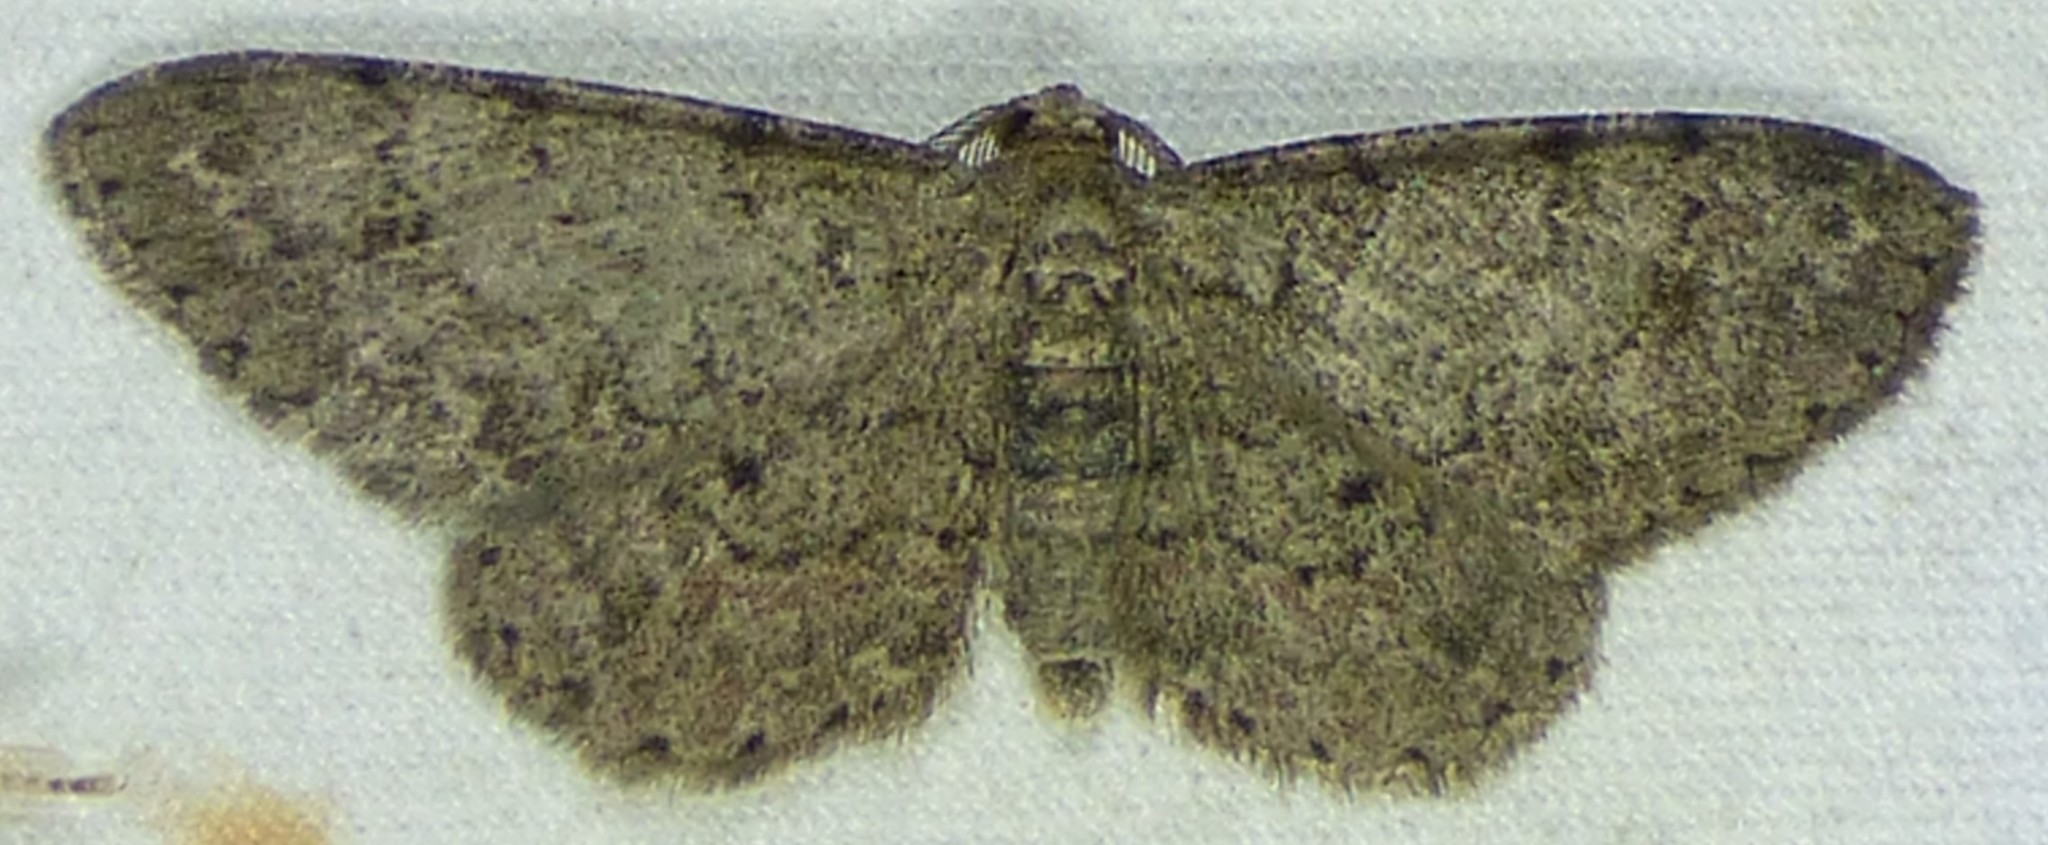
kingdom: Animalia
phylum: Arthropoda
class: Insecta
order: Lepidoptera
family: Geometridae
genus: Glenoides
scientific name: Glenoides texanaria
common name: Texas gray
